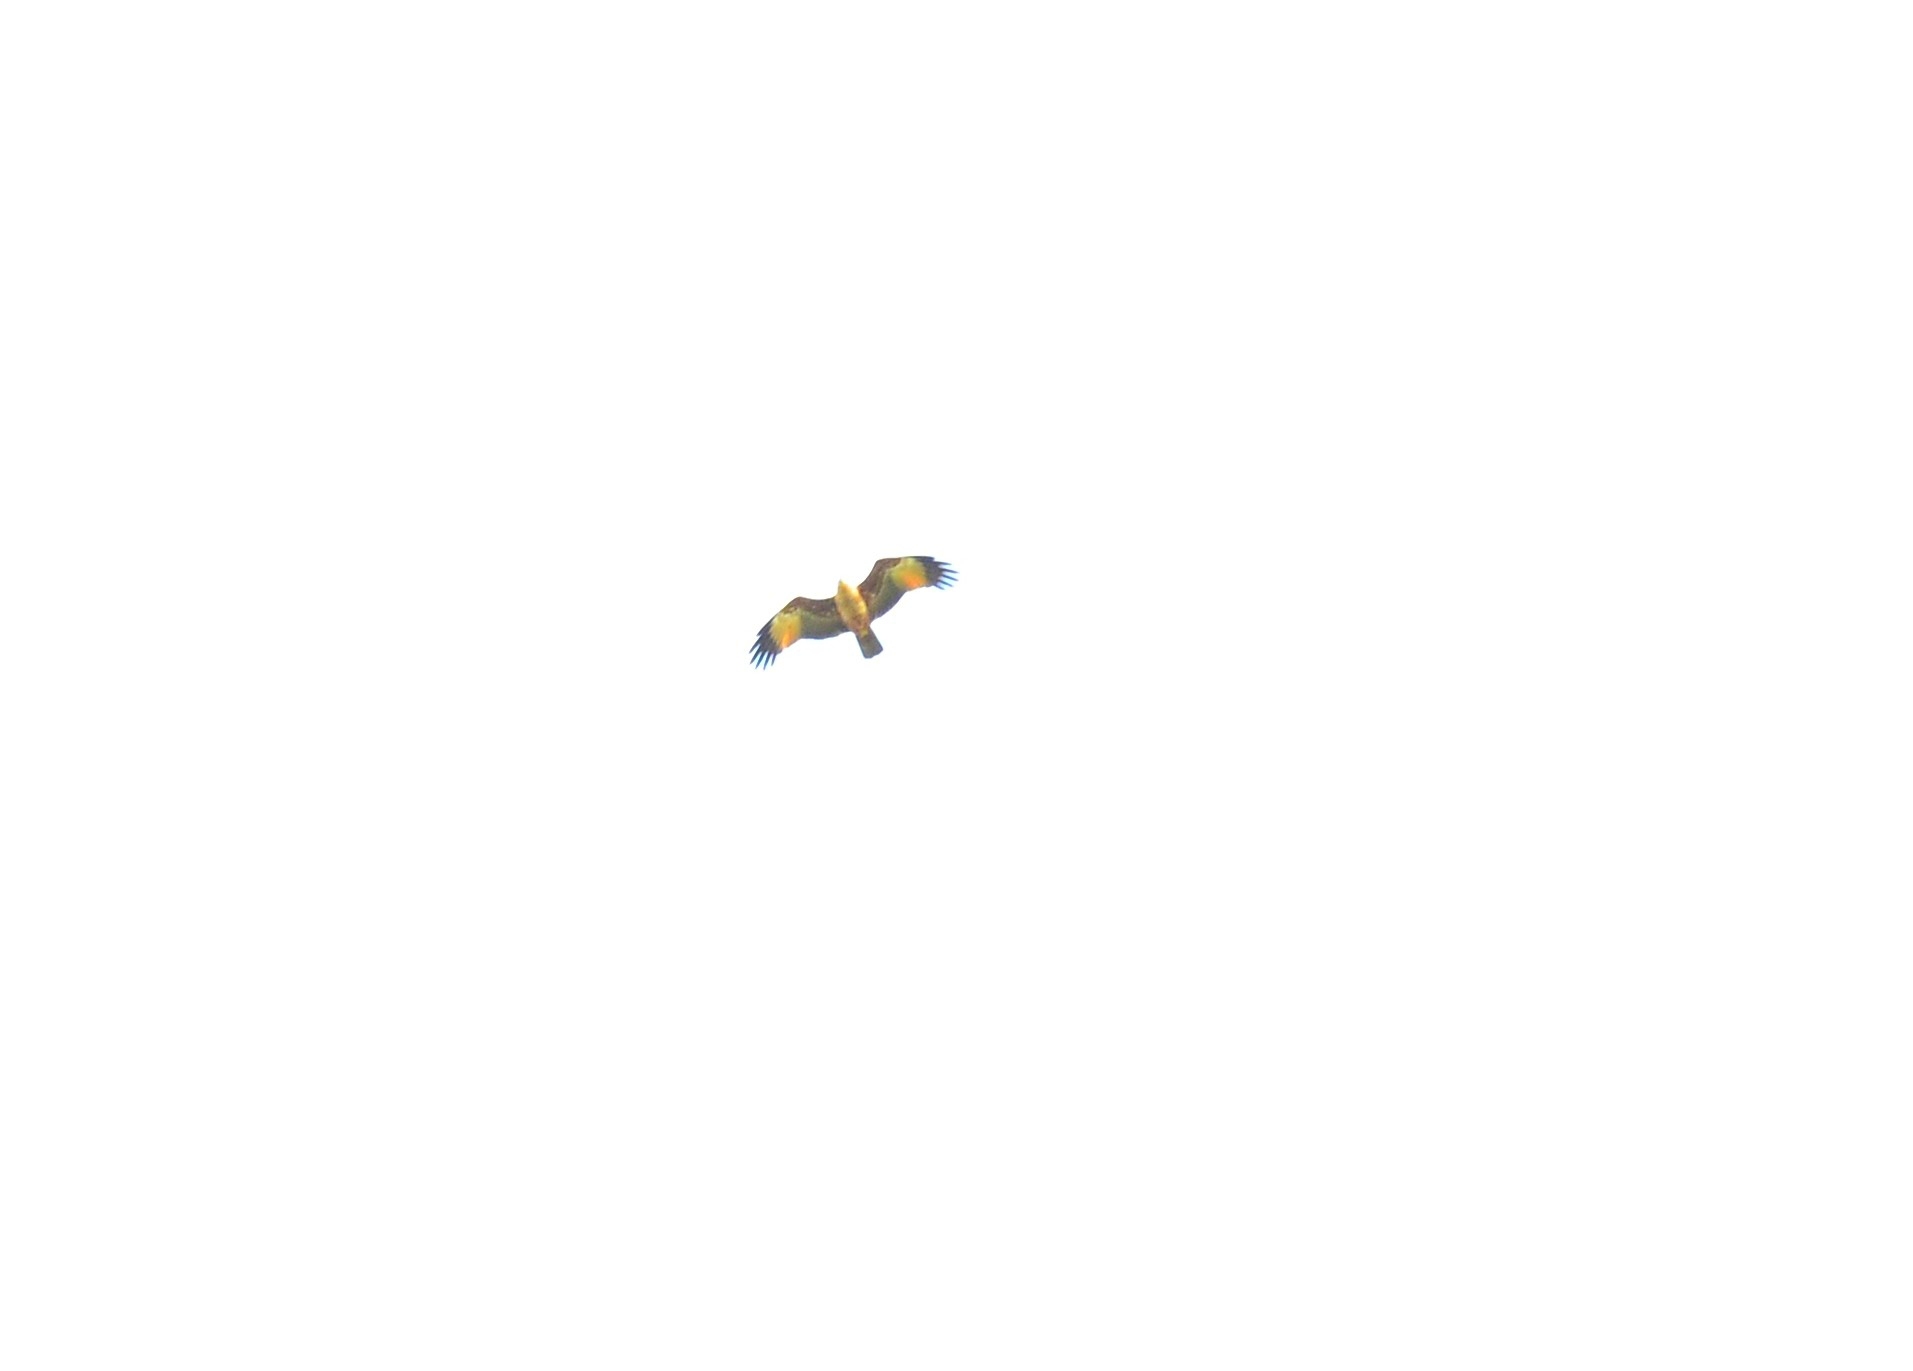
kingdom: Animalia
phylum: Chordata
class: Aves
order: Accipitriformes
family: Accipitridae
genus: Haliastur
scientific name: Haliastur indus
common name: Brahminy kite
